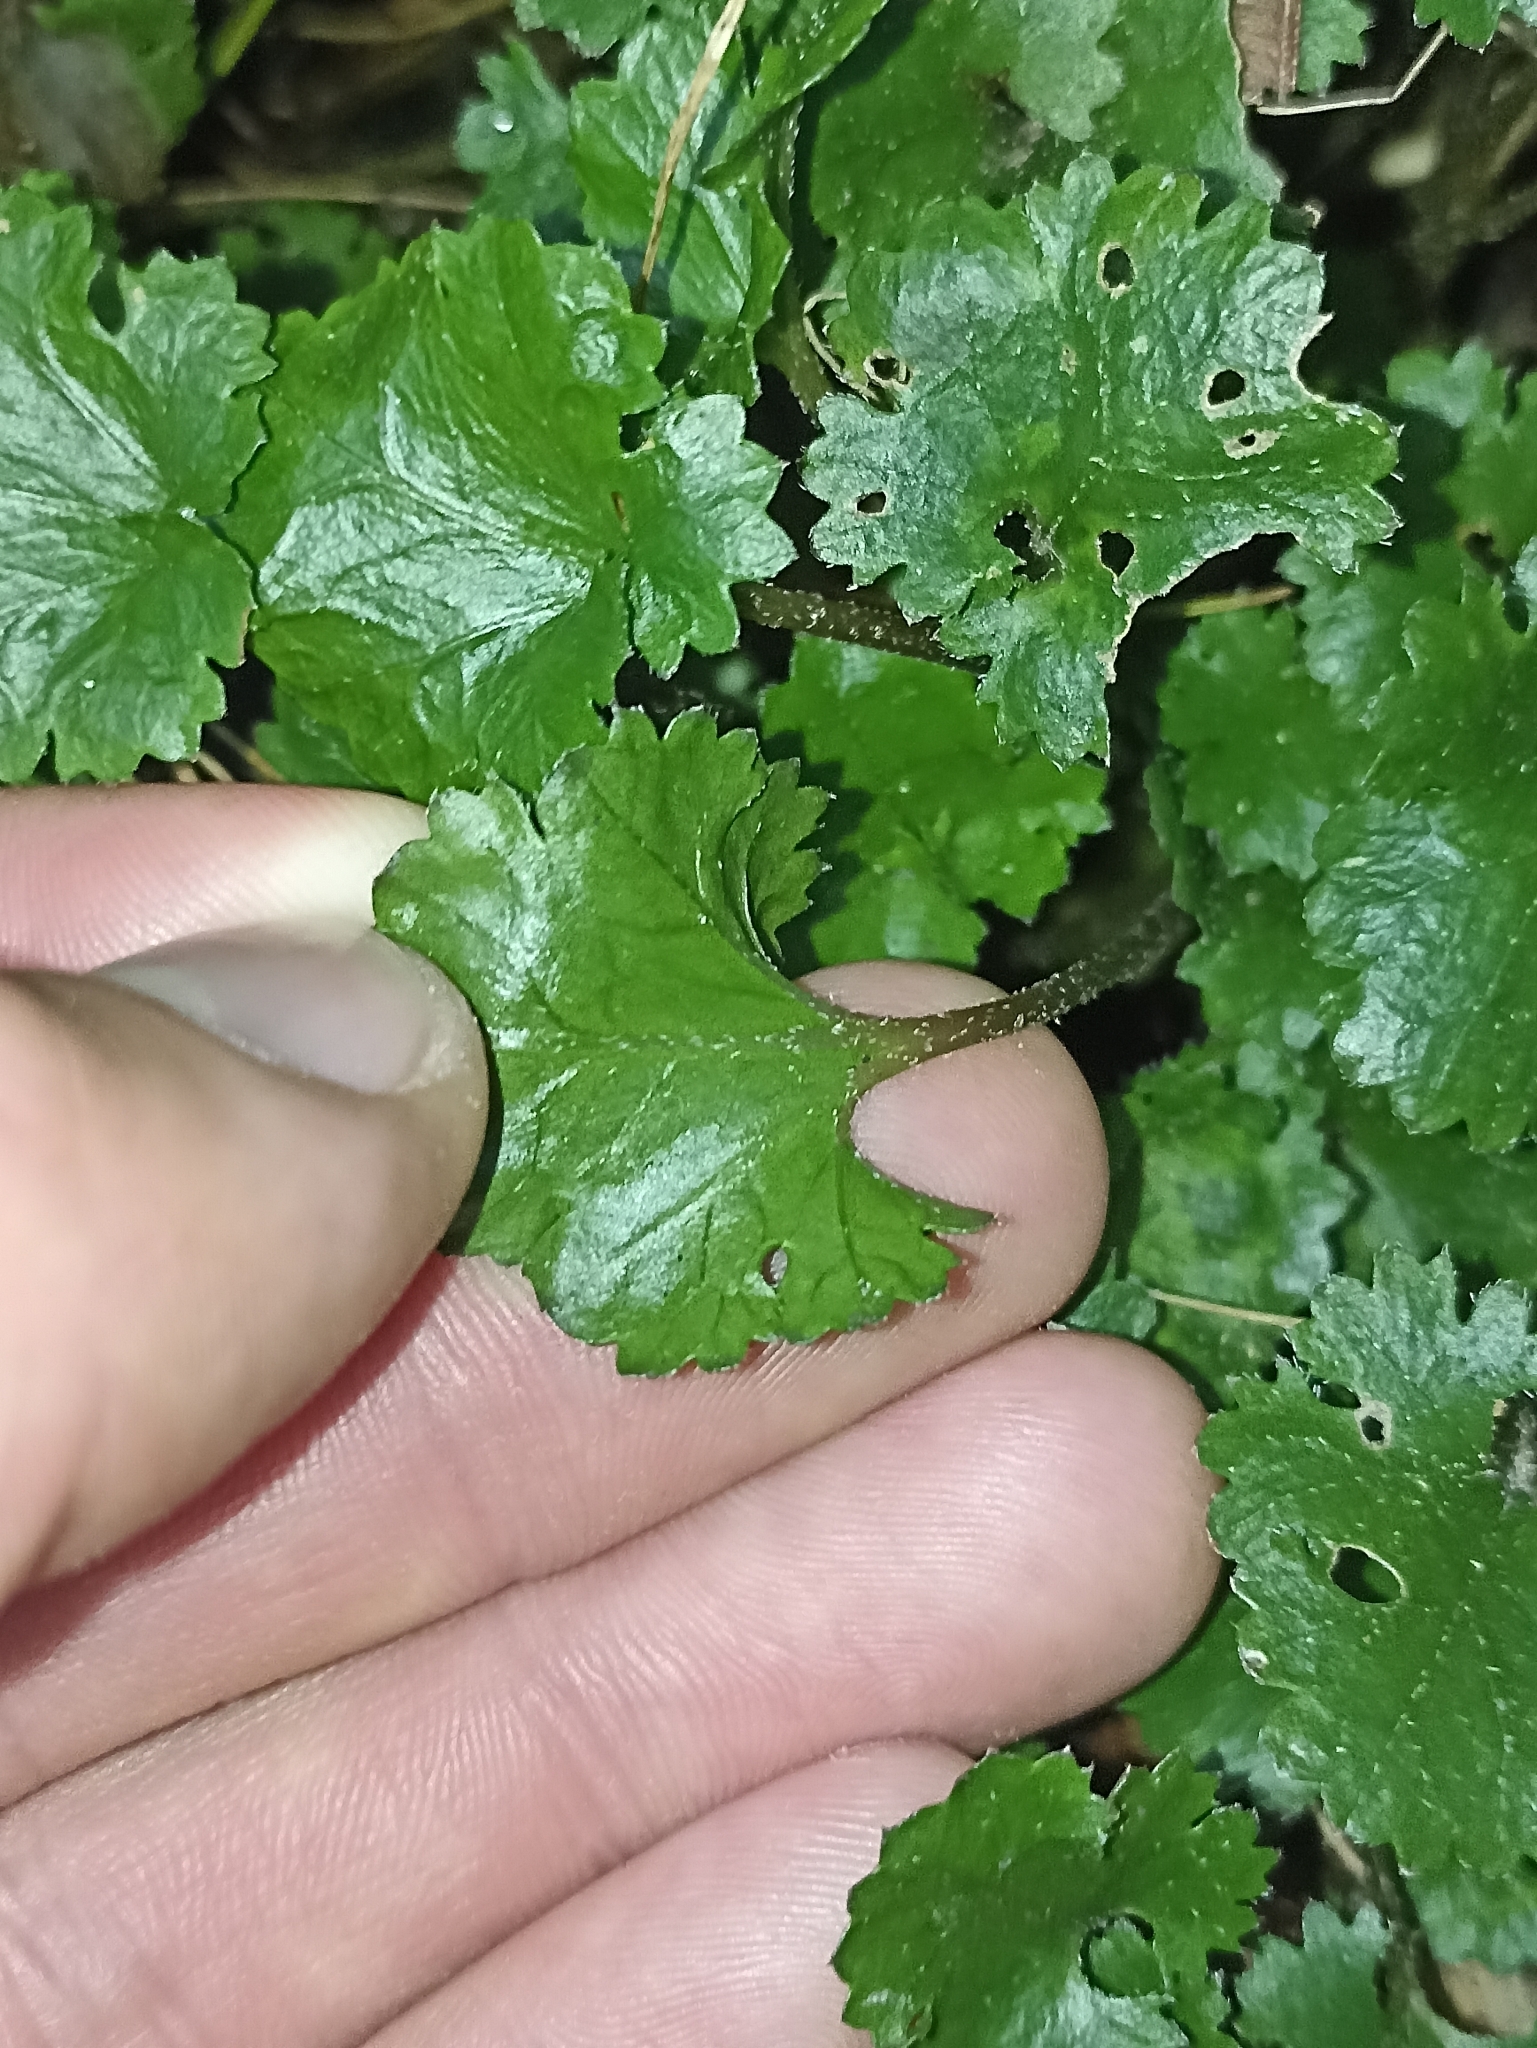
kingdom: Plantae
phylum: Tracheophyta
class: Magnoliopsida
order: Gunnerales
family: Gunneraceae
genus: Gunnera
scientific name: Gunnera monoica
